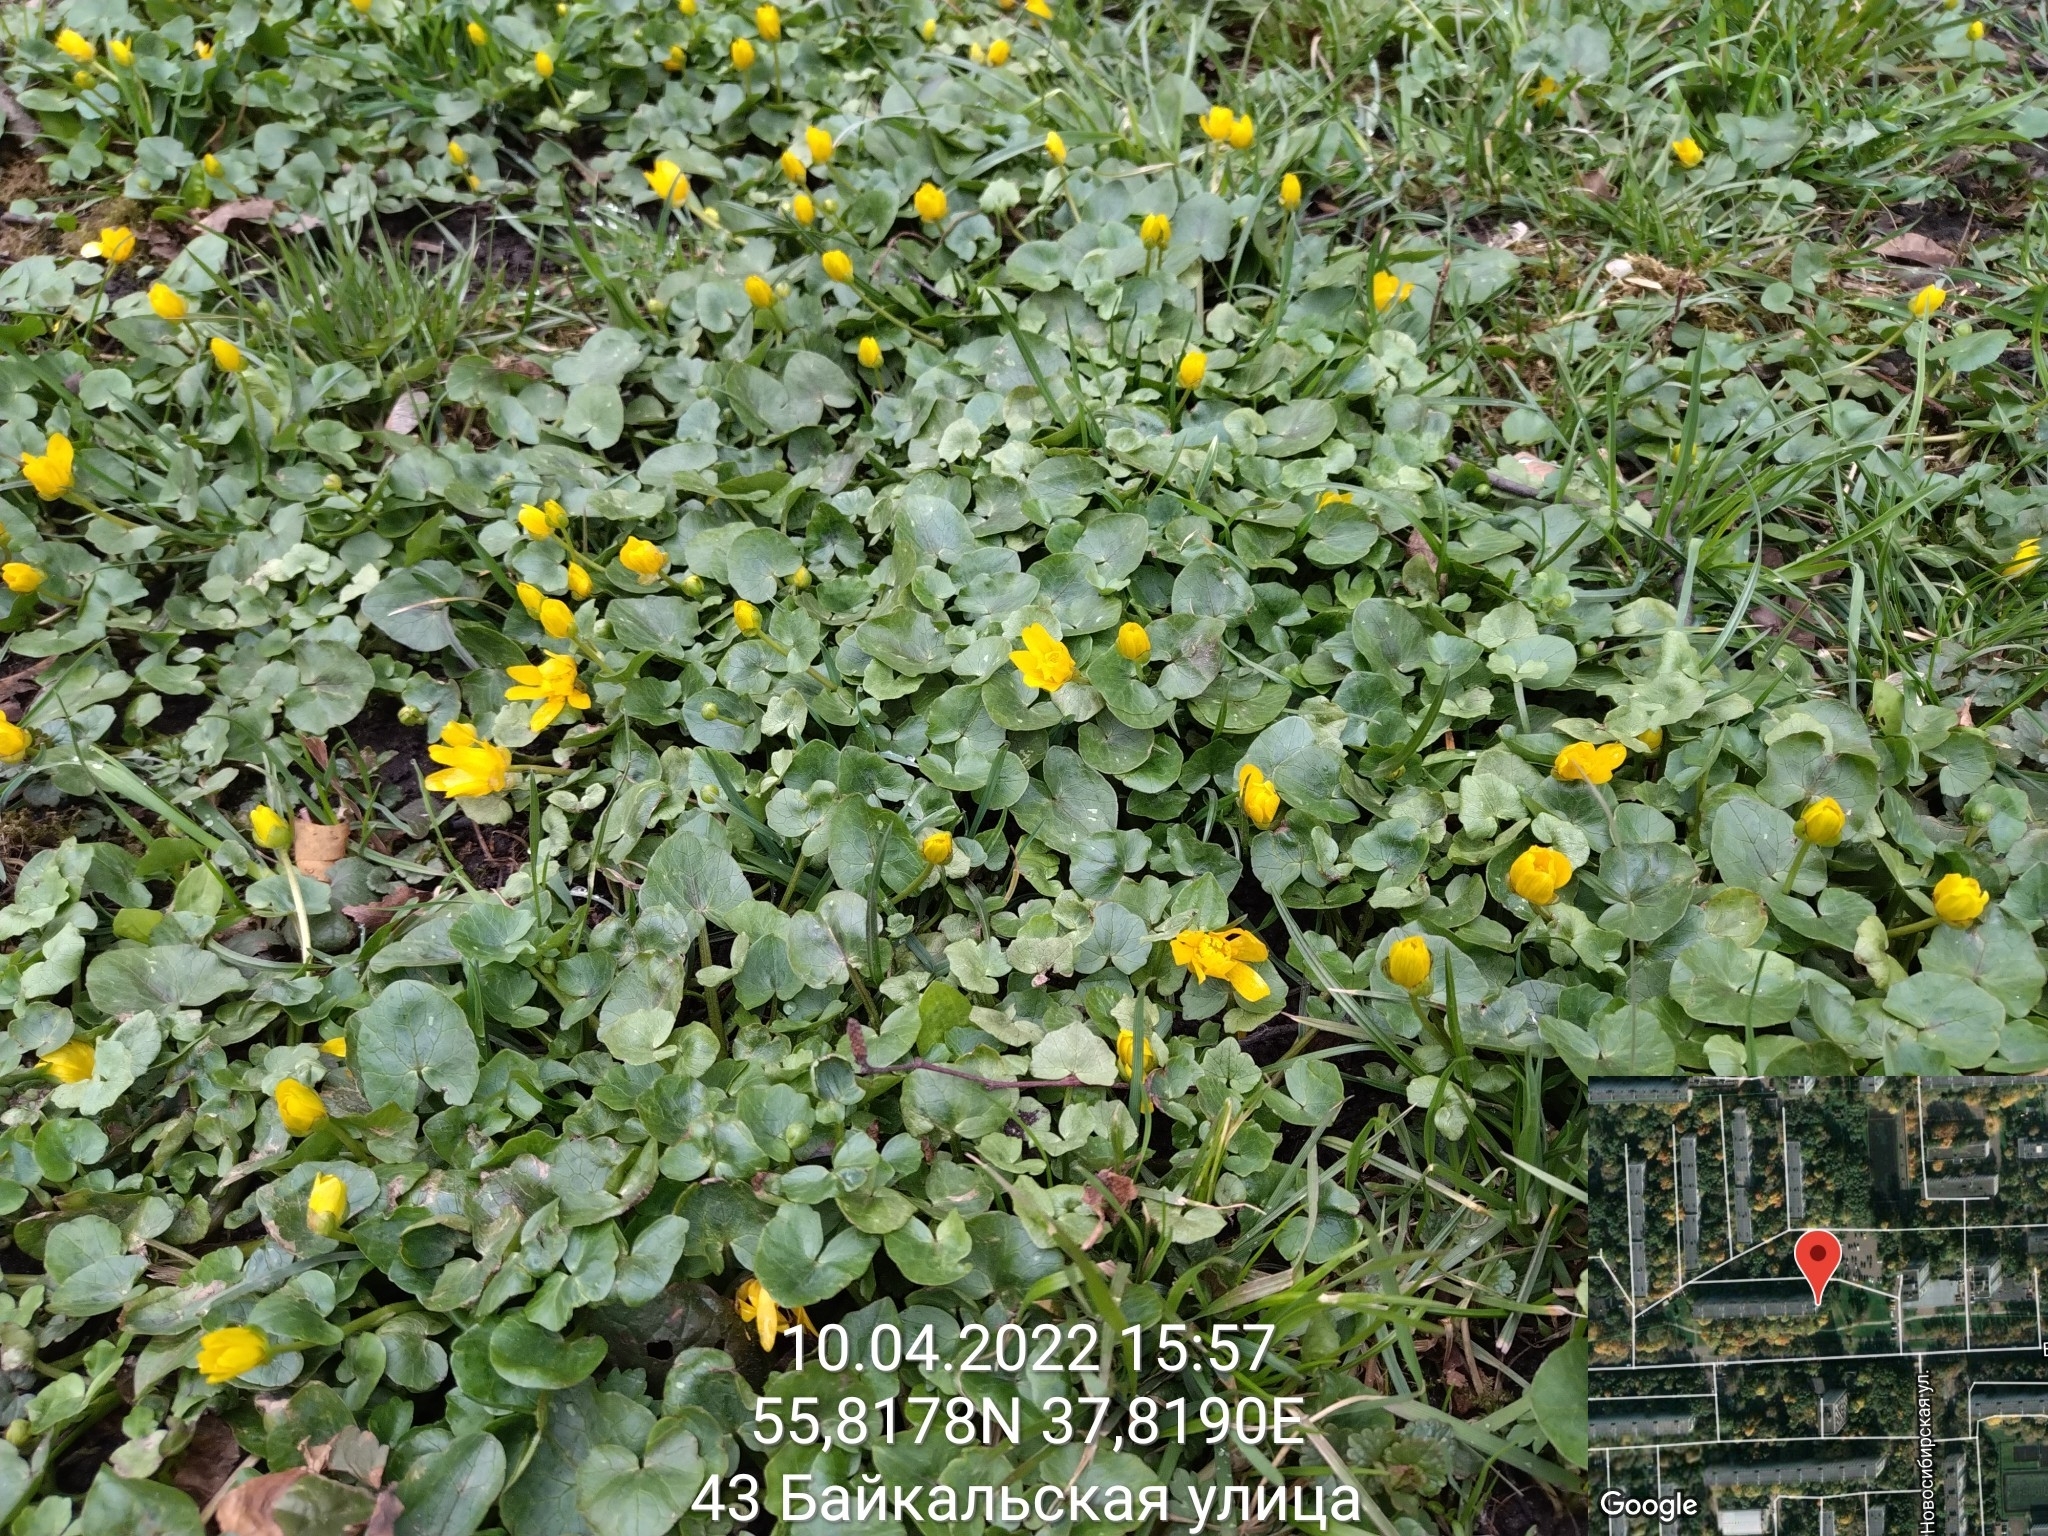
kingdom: Plantae
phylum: Tracheophyta
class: Magnoliopsida
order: Ranunculales
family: Ranunculaceae
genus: Ficaria
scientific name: Ficaria verna
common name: Lesser celandine
